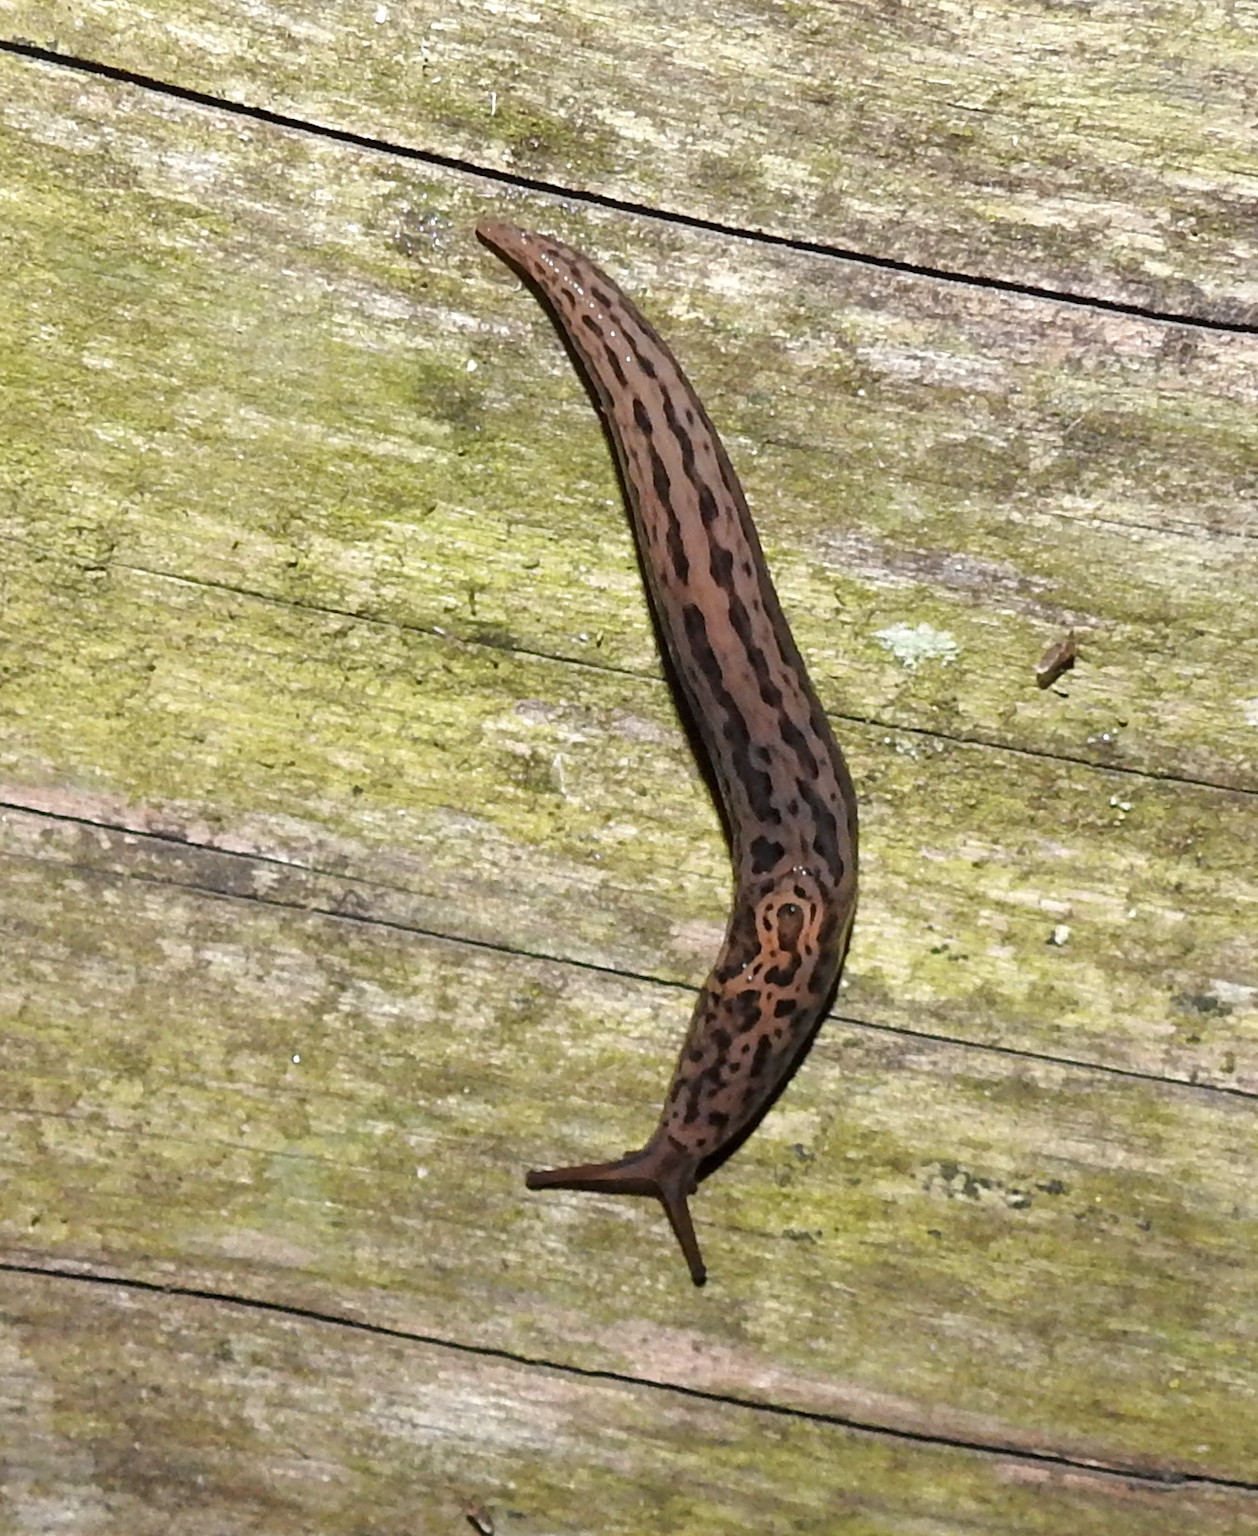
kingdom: Animalia
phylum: Mollusca
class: Gastropoda
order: Stylommatophora
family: Limacidae
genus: Limax
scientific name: Limax maximus
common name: Great grey slug
